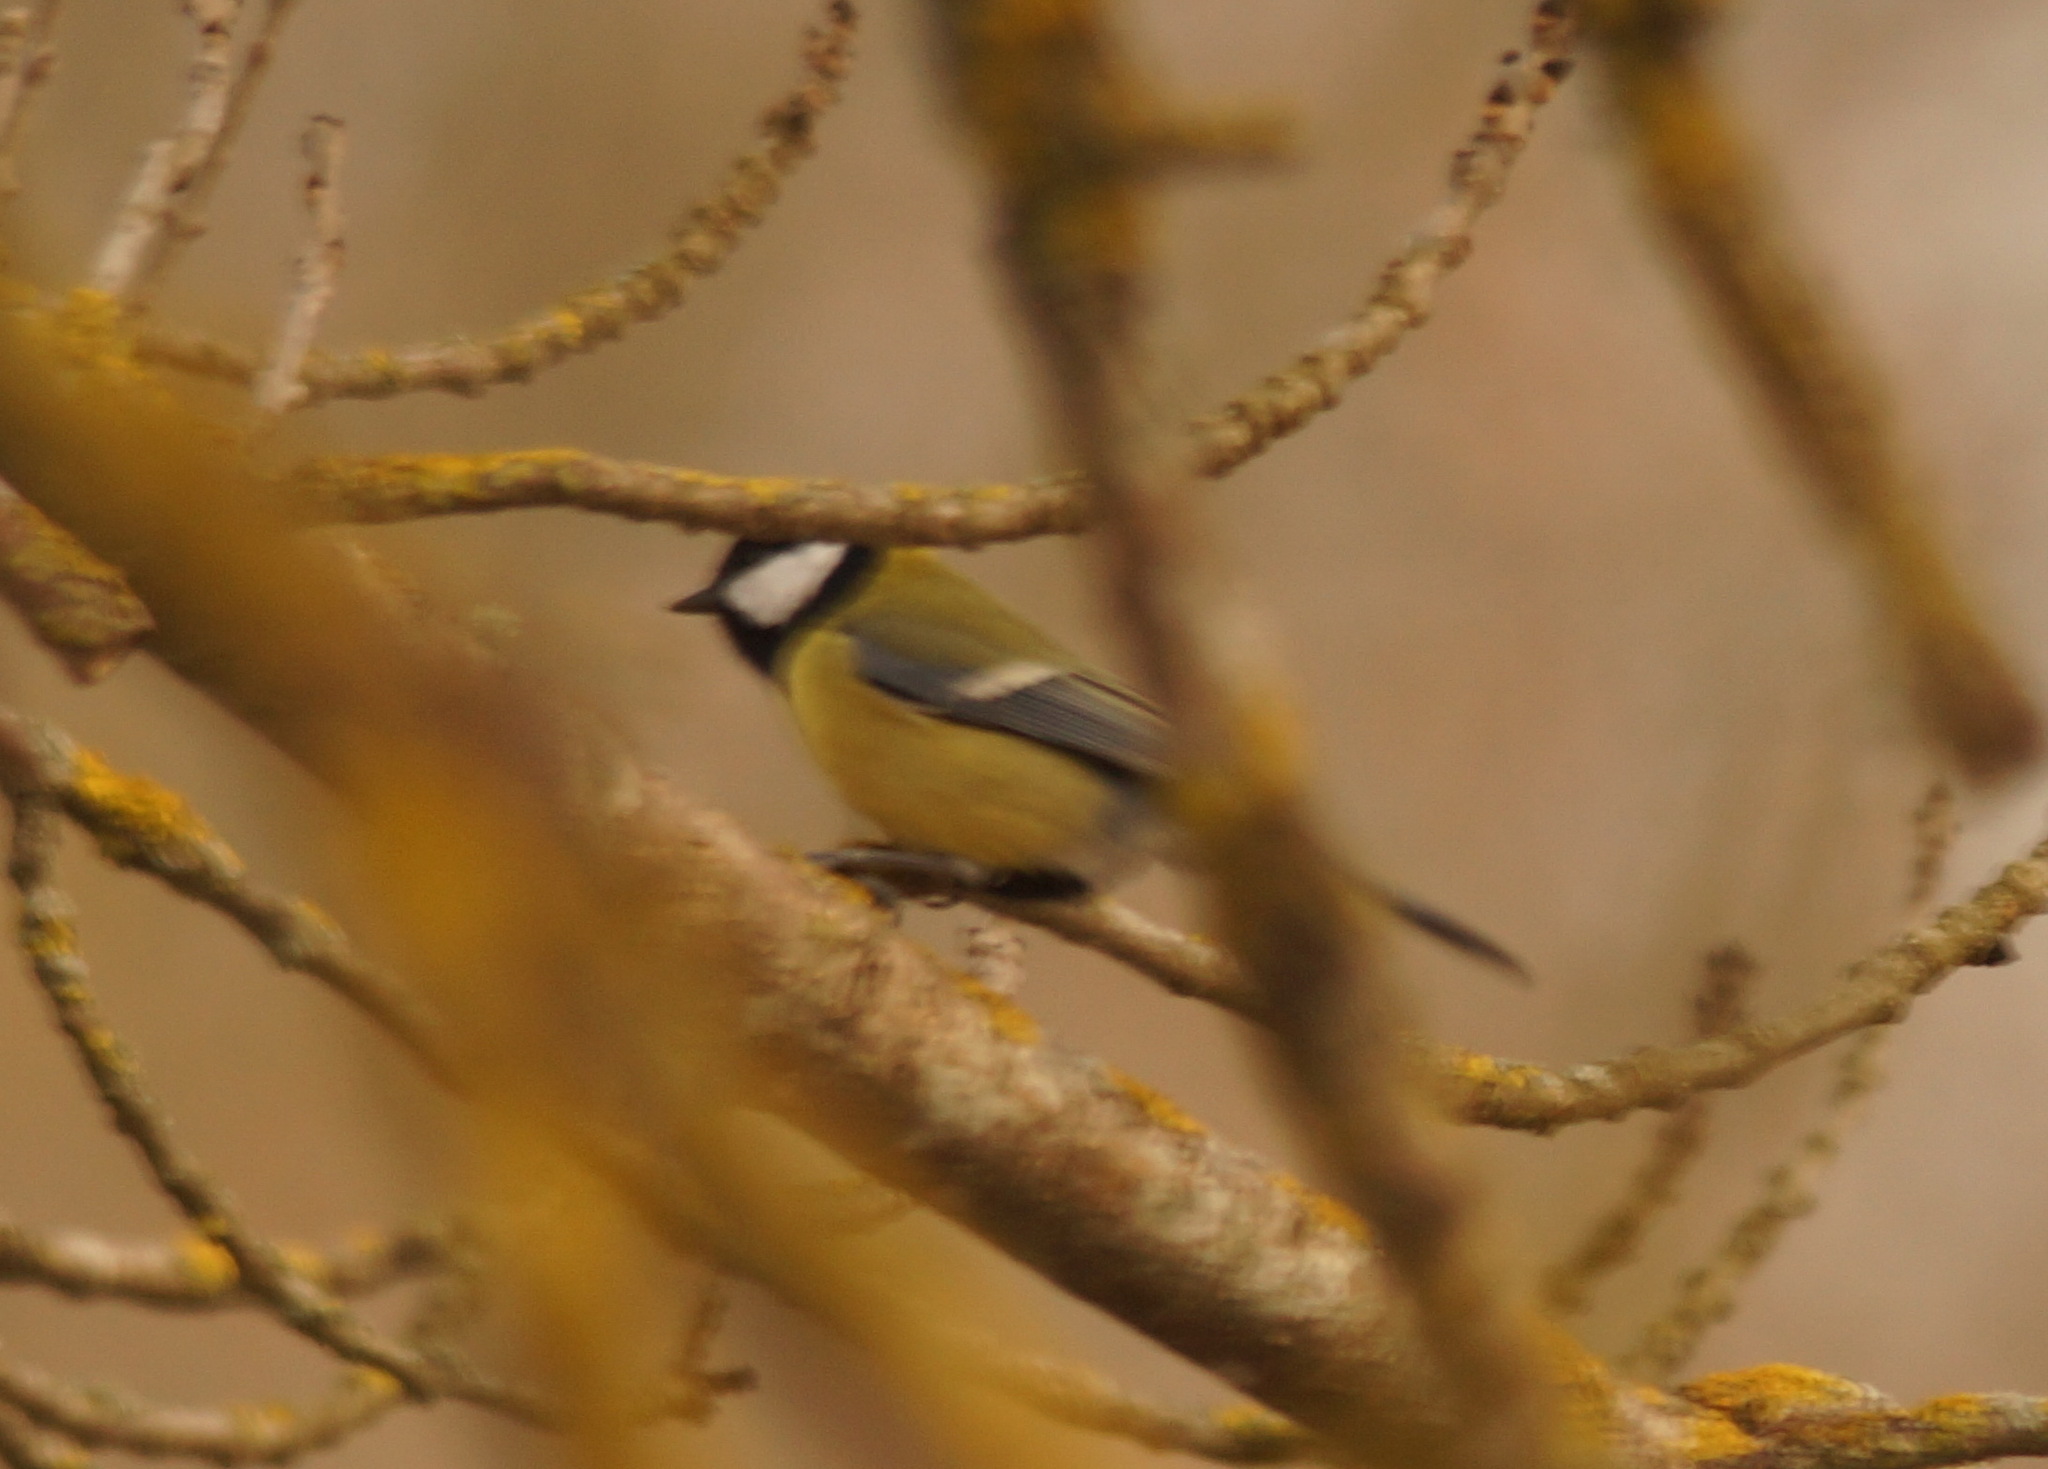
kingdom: Animalia
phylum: Chordata
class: Aves
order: Passeriformes
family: Paridae
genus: Parus
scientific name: Parus major
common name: Great tit
